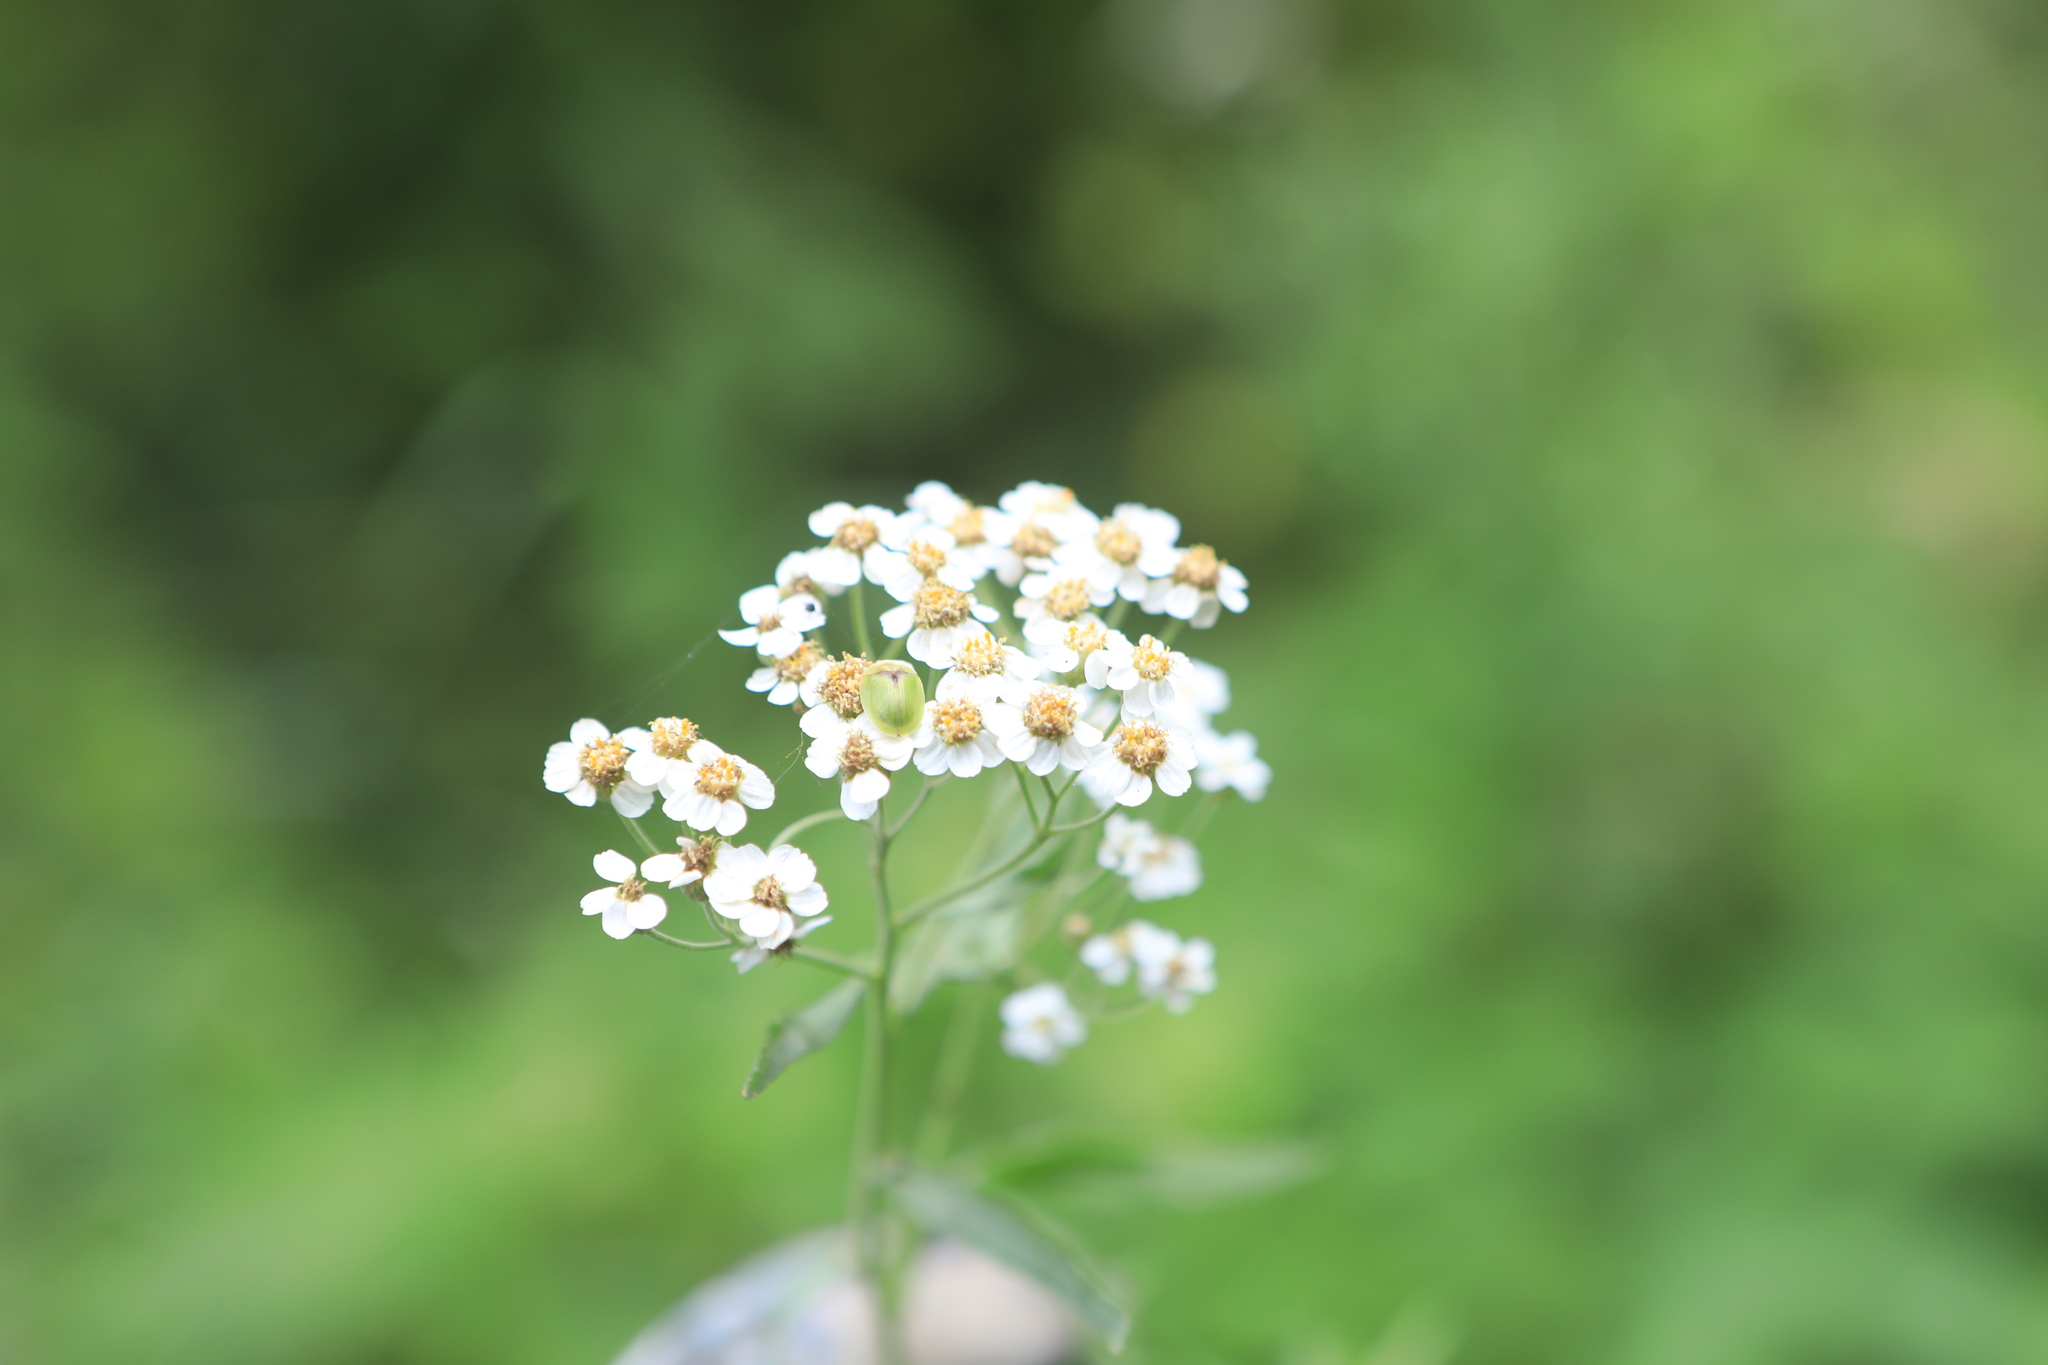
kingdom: Plantae
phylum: Tracheophyta
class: Magnoliopsida
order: Asterales
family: Asteraceae
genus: Achillea
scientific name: Achillea salicifolia
